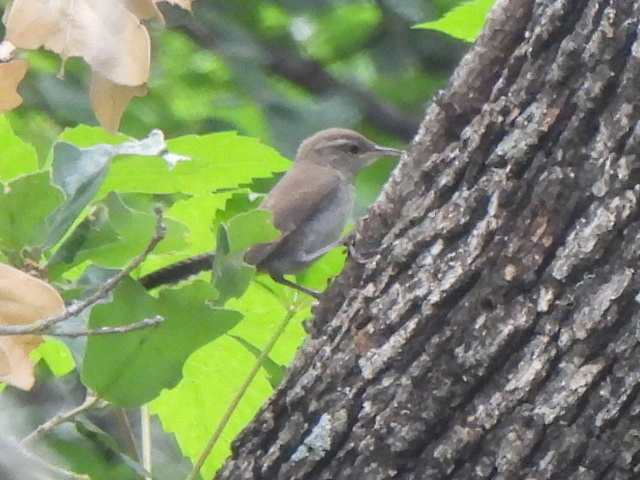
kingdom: Animalia
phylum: Chordata
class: Aves
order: Passeriformes
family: Troglodytidae
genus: Thryomanes
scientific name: Thryomanes bewickii
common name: Bewick's wren
